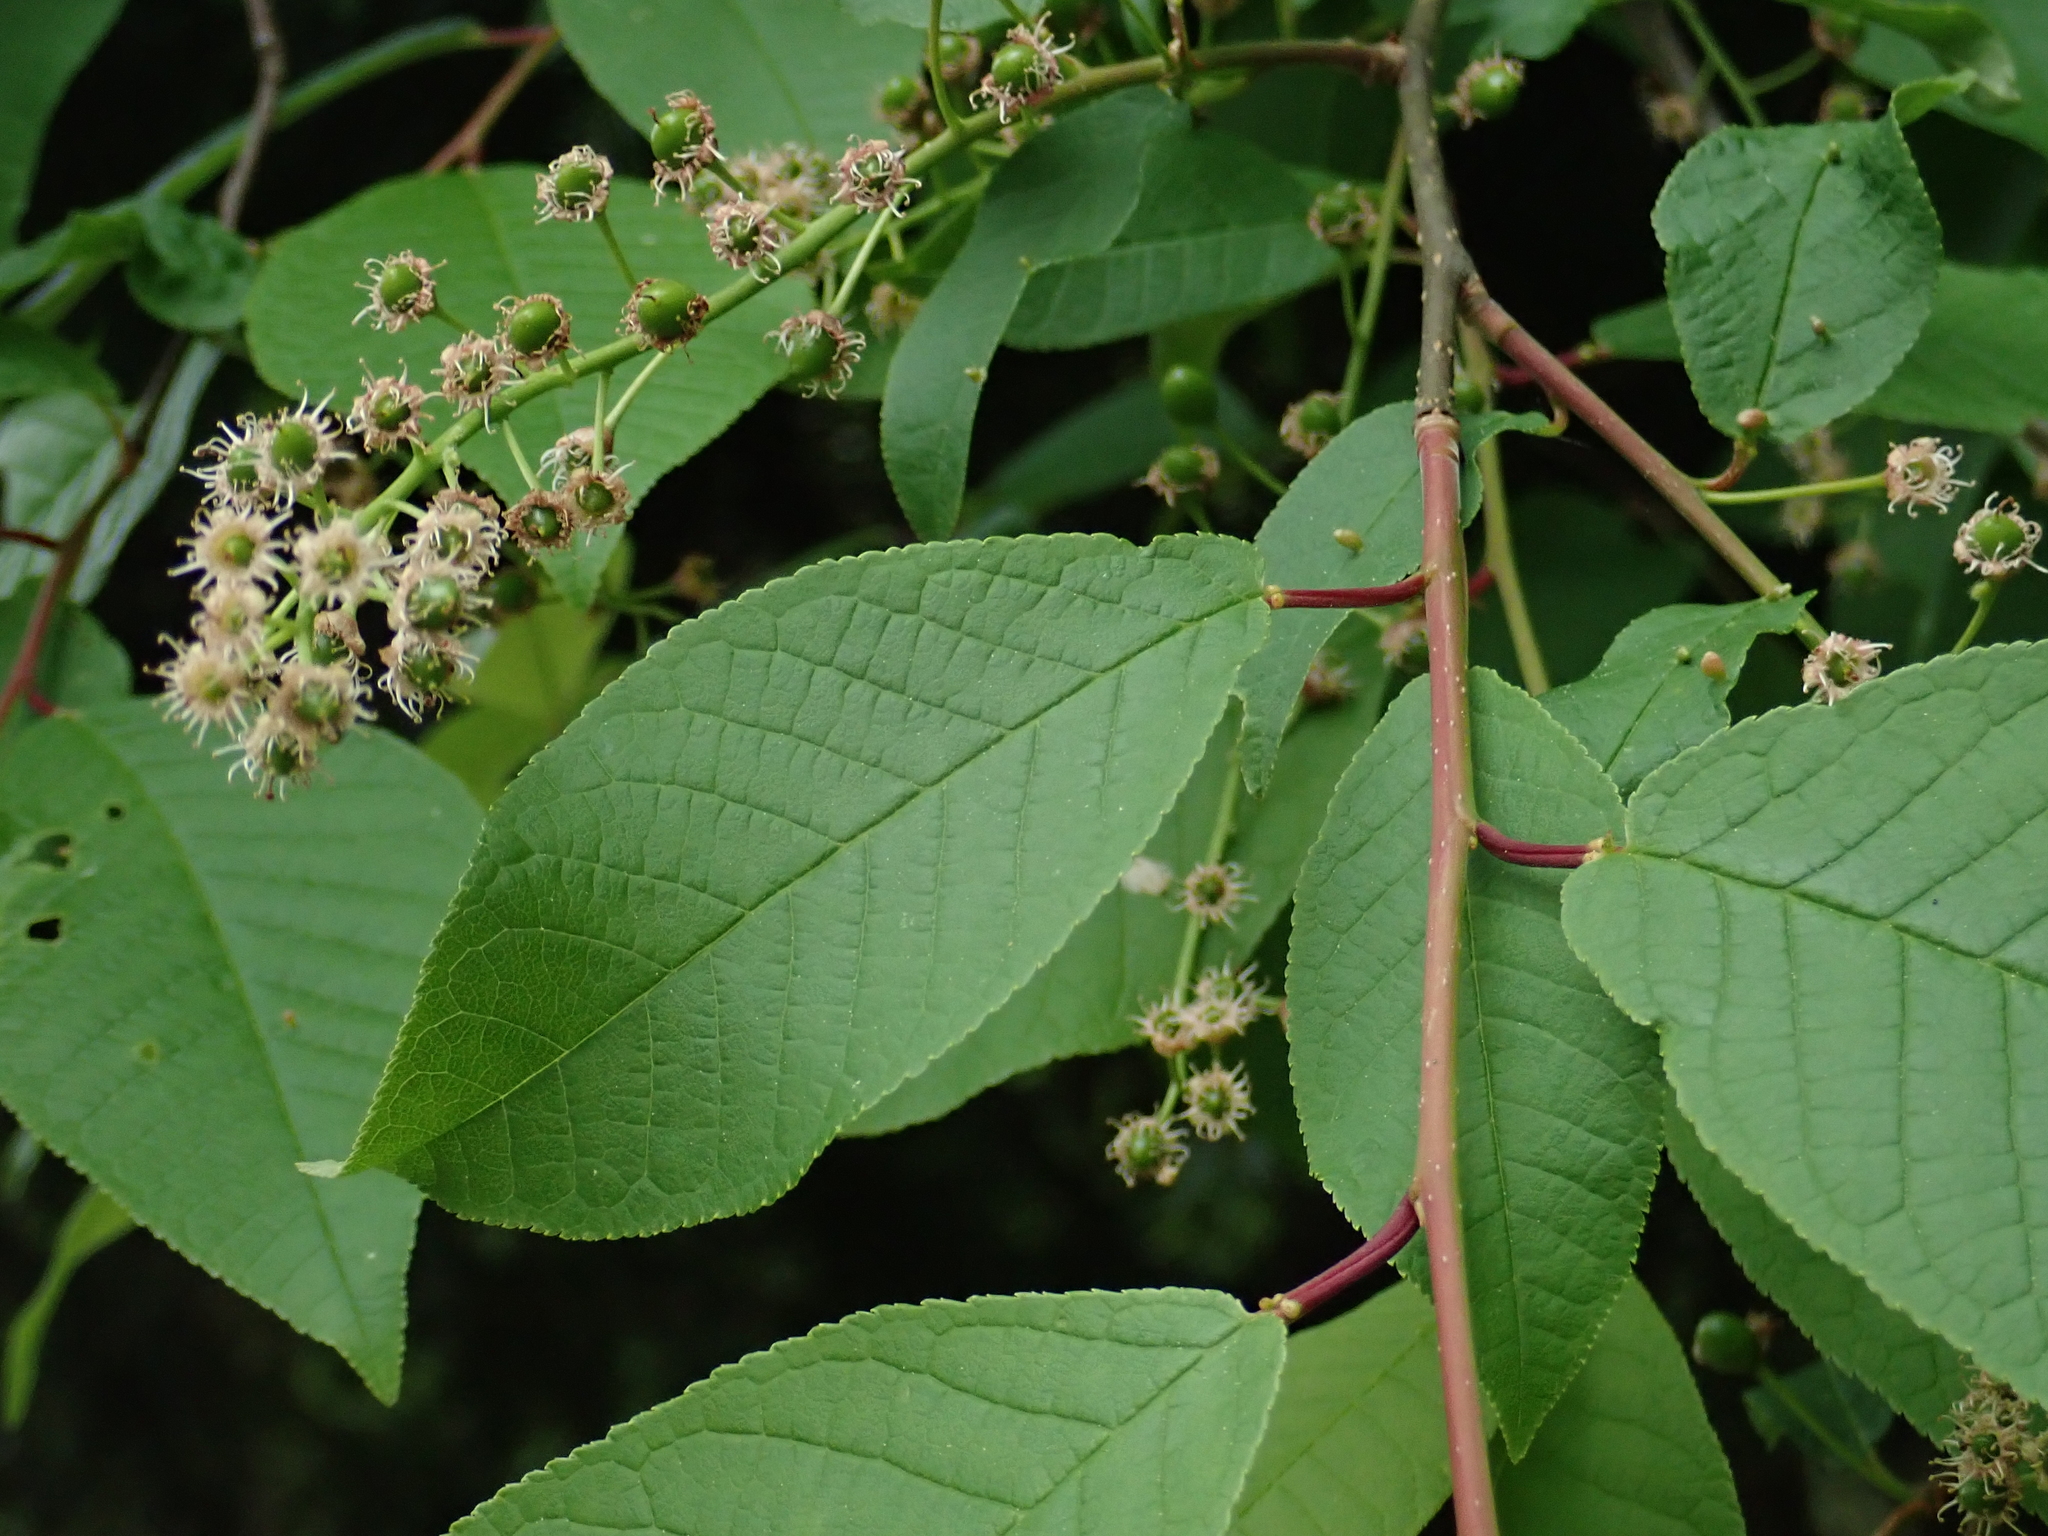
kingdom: Plantae
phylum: Tracheophyta
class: Magnoliopsida
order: Rosales
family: Rosaceae
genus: Prunus
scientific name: Prunus padus
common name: Bird cherry
